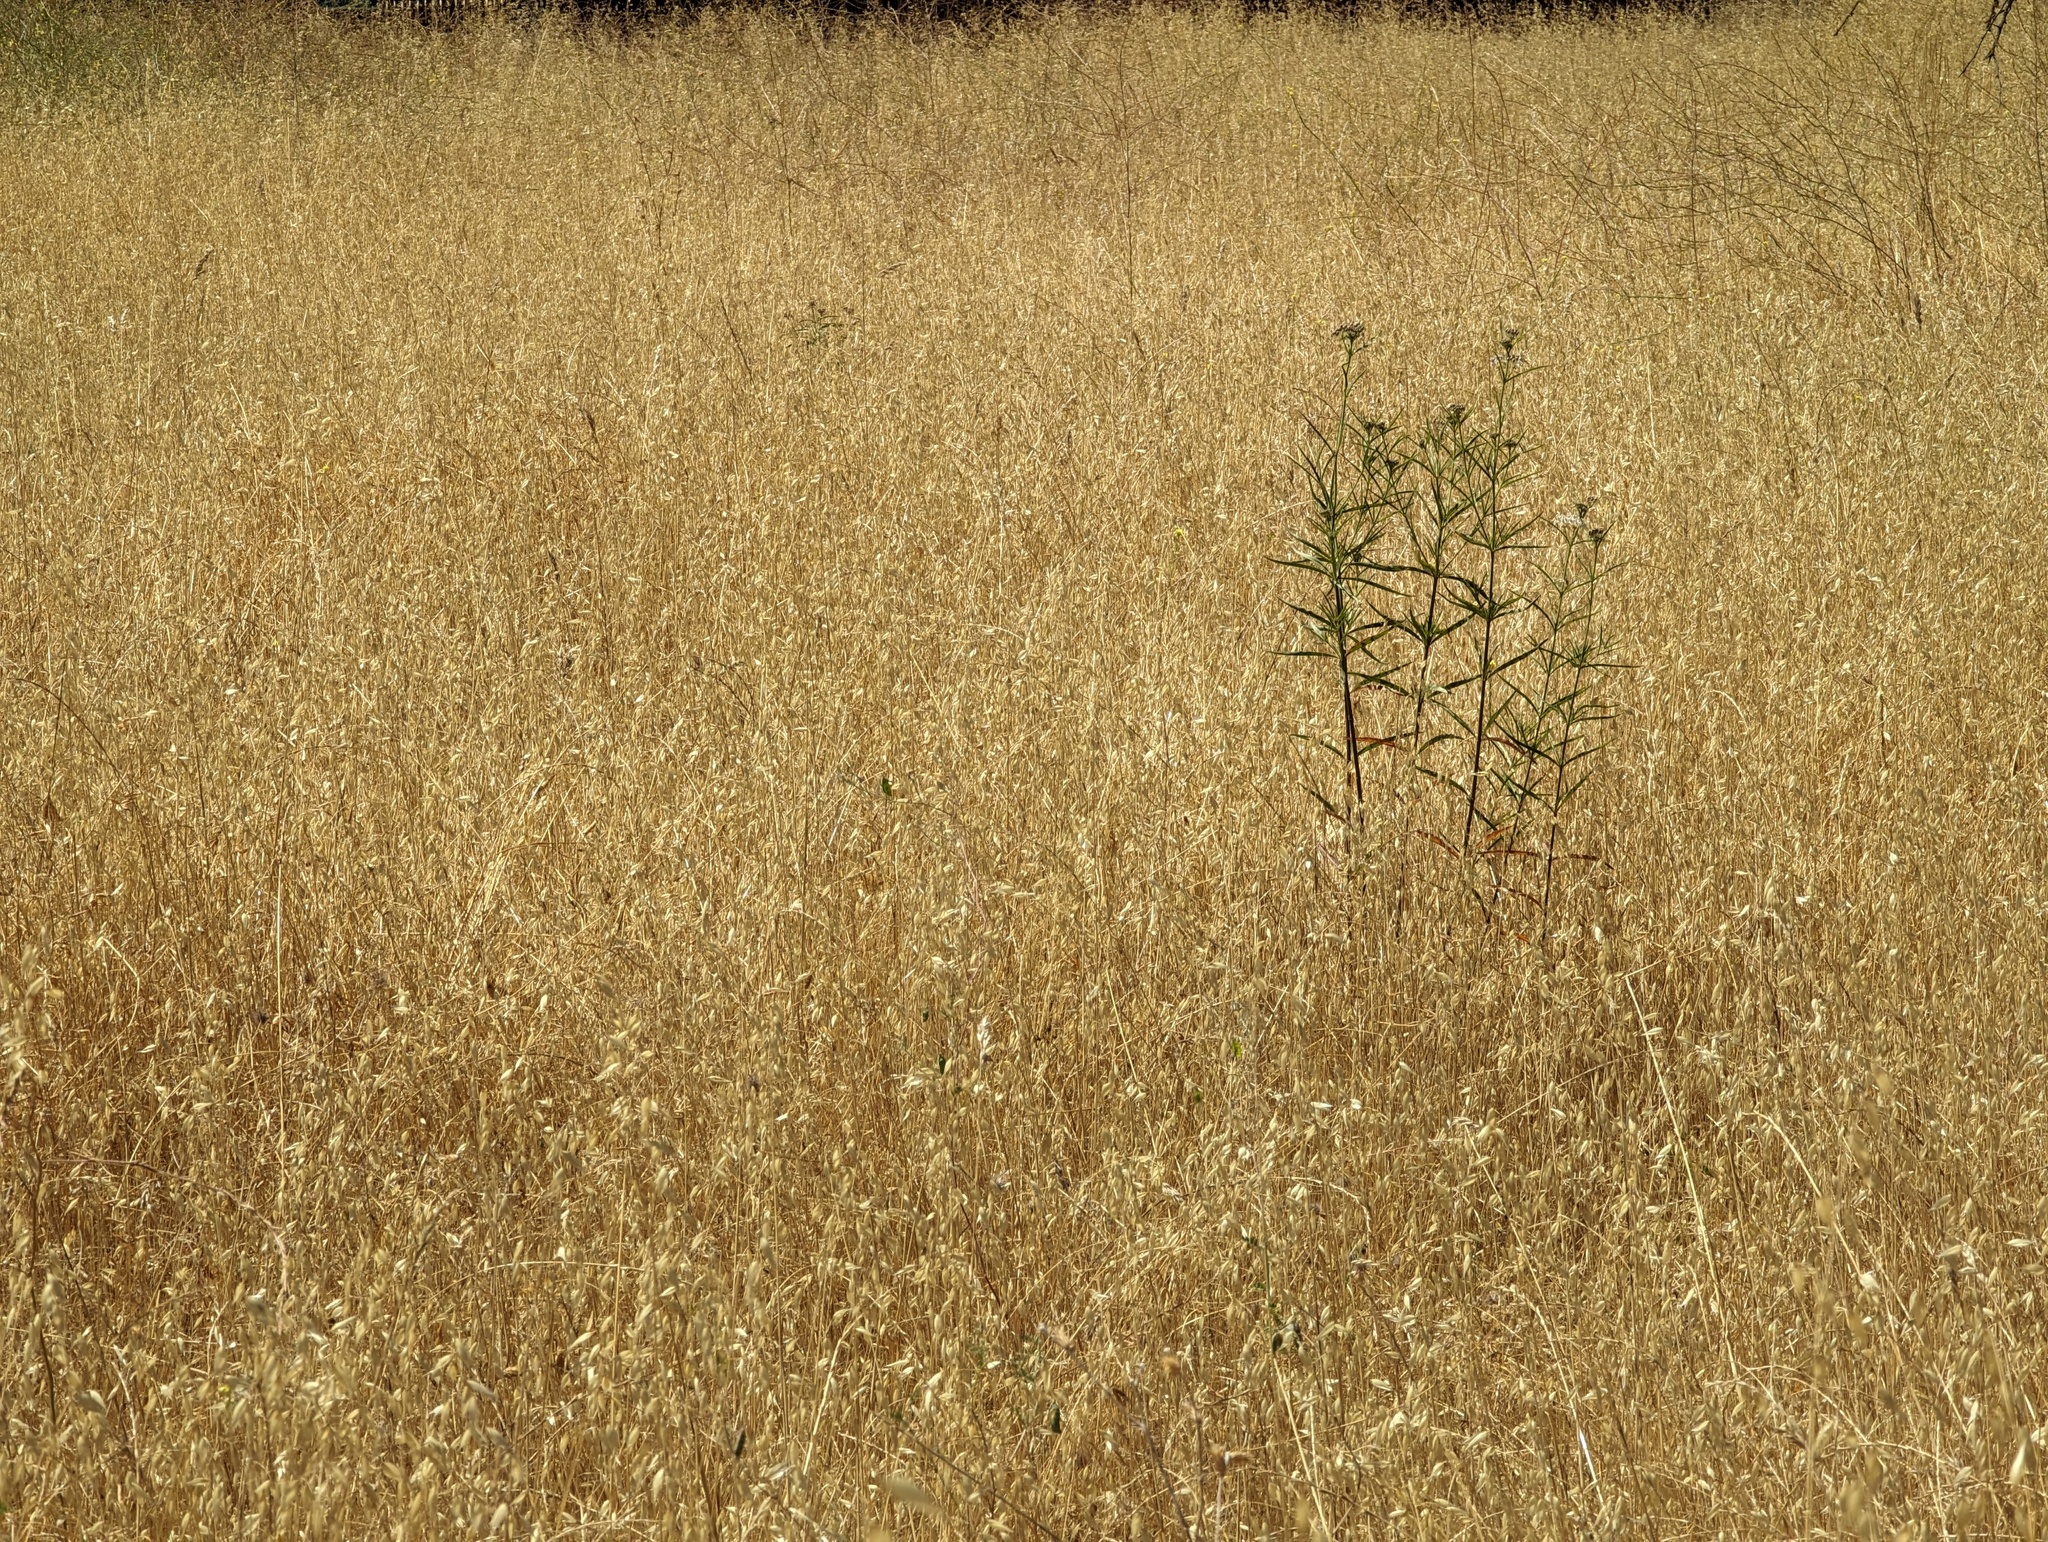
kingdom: Plantae
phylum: Tracheophyta
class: Magnoliopsida
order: Gentianales
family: Apocynaceae
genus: Asclepias
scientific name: Asclepias fascicularis
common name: Mexican milkweed
